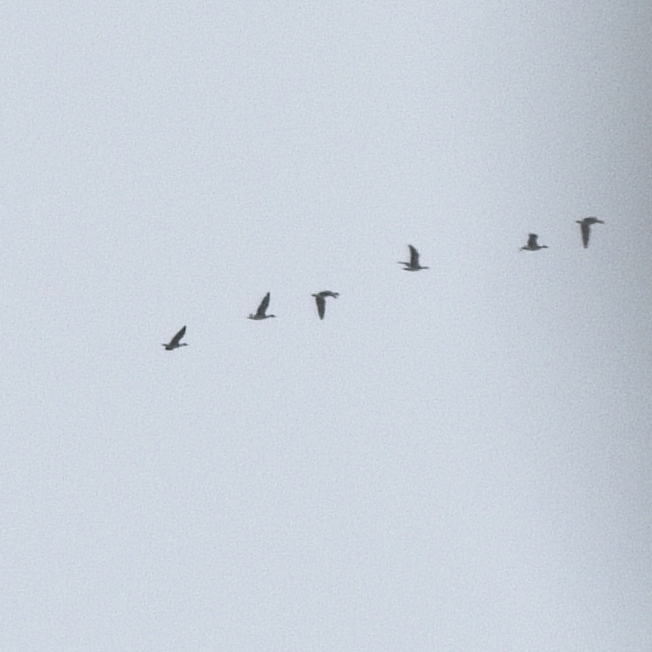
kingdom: Animalia
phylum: Chordata
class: Aves
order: Anseriformes
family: Anatidae
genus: Anser
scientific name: Anser
